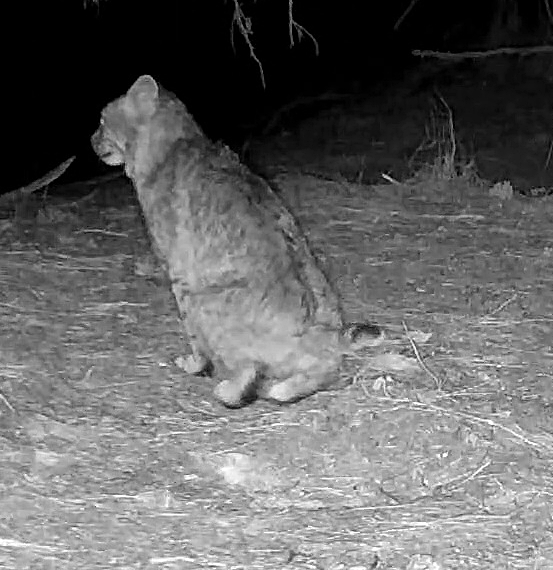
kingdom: Animalia
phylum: Chordata
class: Mammalia
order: Carnivora
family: Felidae
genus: Lynx
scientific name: Lynx rufus
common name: Bobcat
